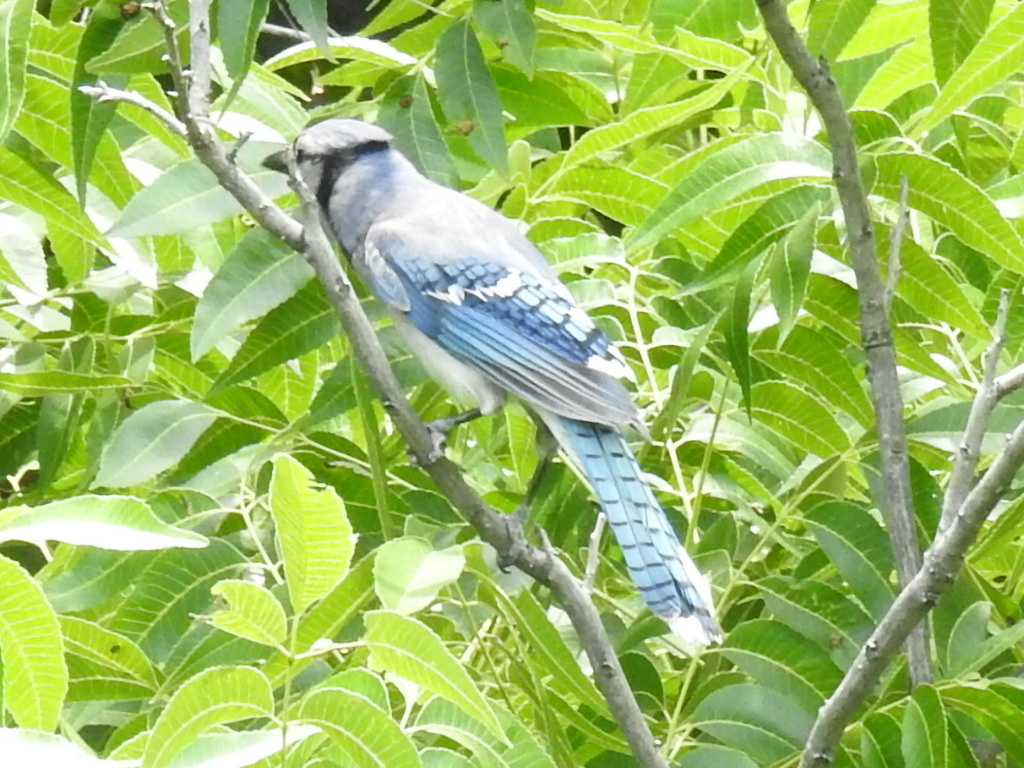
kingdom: Animalia
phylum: Chordata
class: Aves
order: Passeriformes
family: Corvidae
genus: Cyanocitta
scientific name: Cyanocitta cristata
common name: Blue jay
